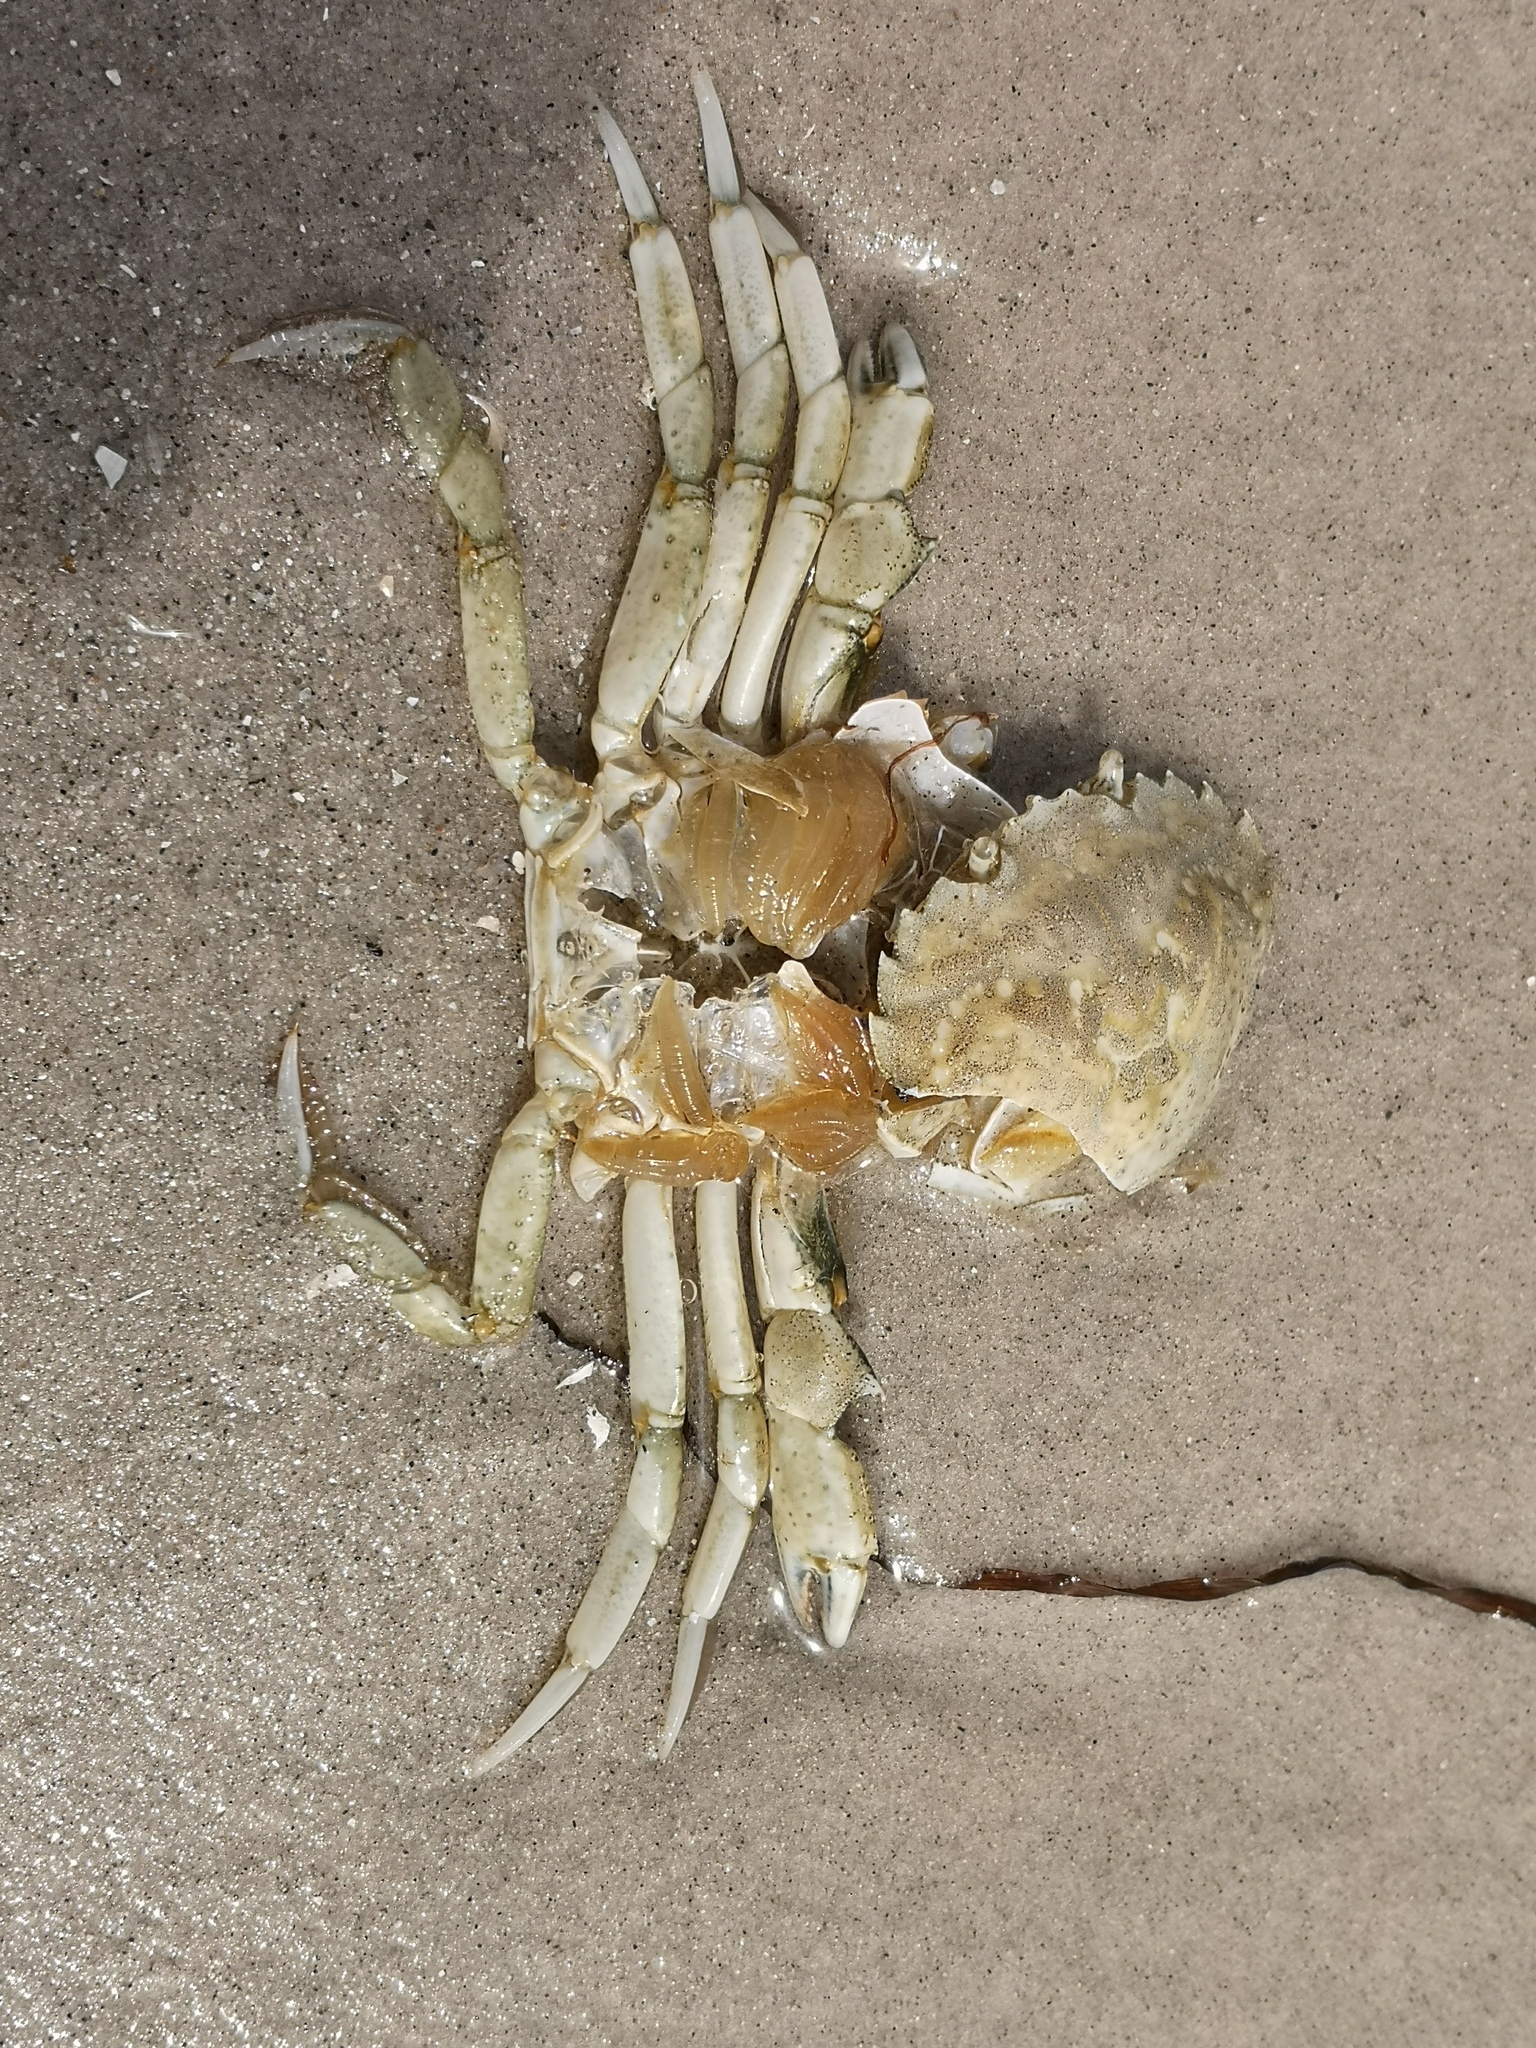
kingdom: Animalia
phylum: Arthropoda
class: Malacostraca
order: Decapoda
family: Carcinidae
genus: Carcinus
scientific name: Carcinus maenas
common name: European green crab
